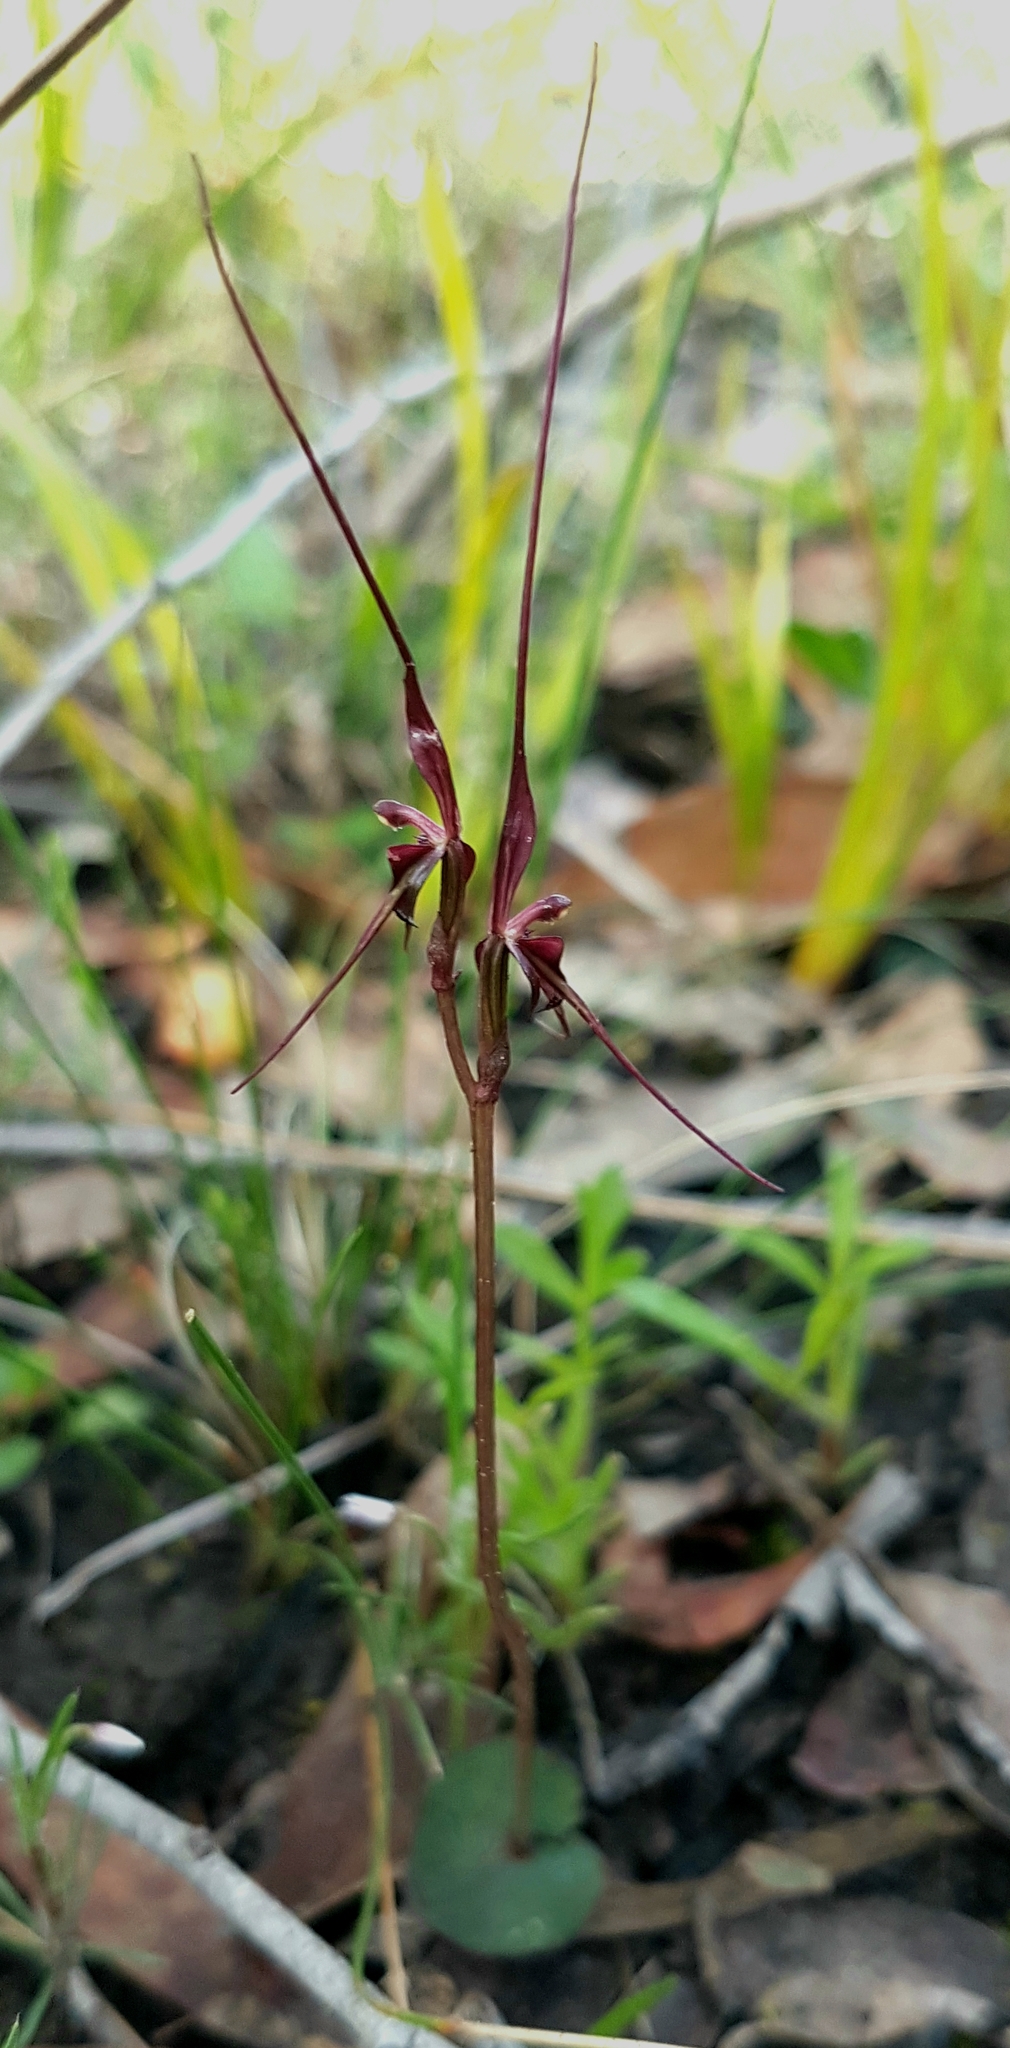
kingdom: Plantae
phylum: Tracheophyta
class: Liliopsida
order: Asparagales
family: Orchidaceae
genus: Acianthus
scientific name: Acianthus caudatus
